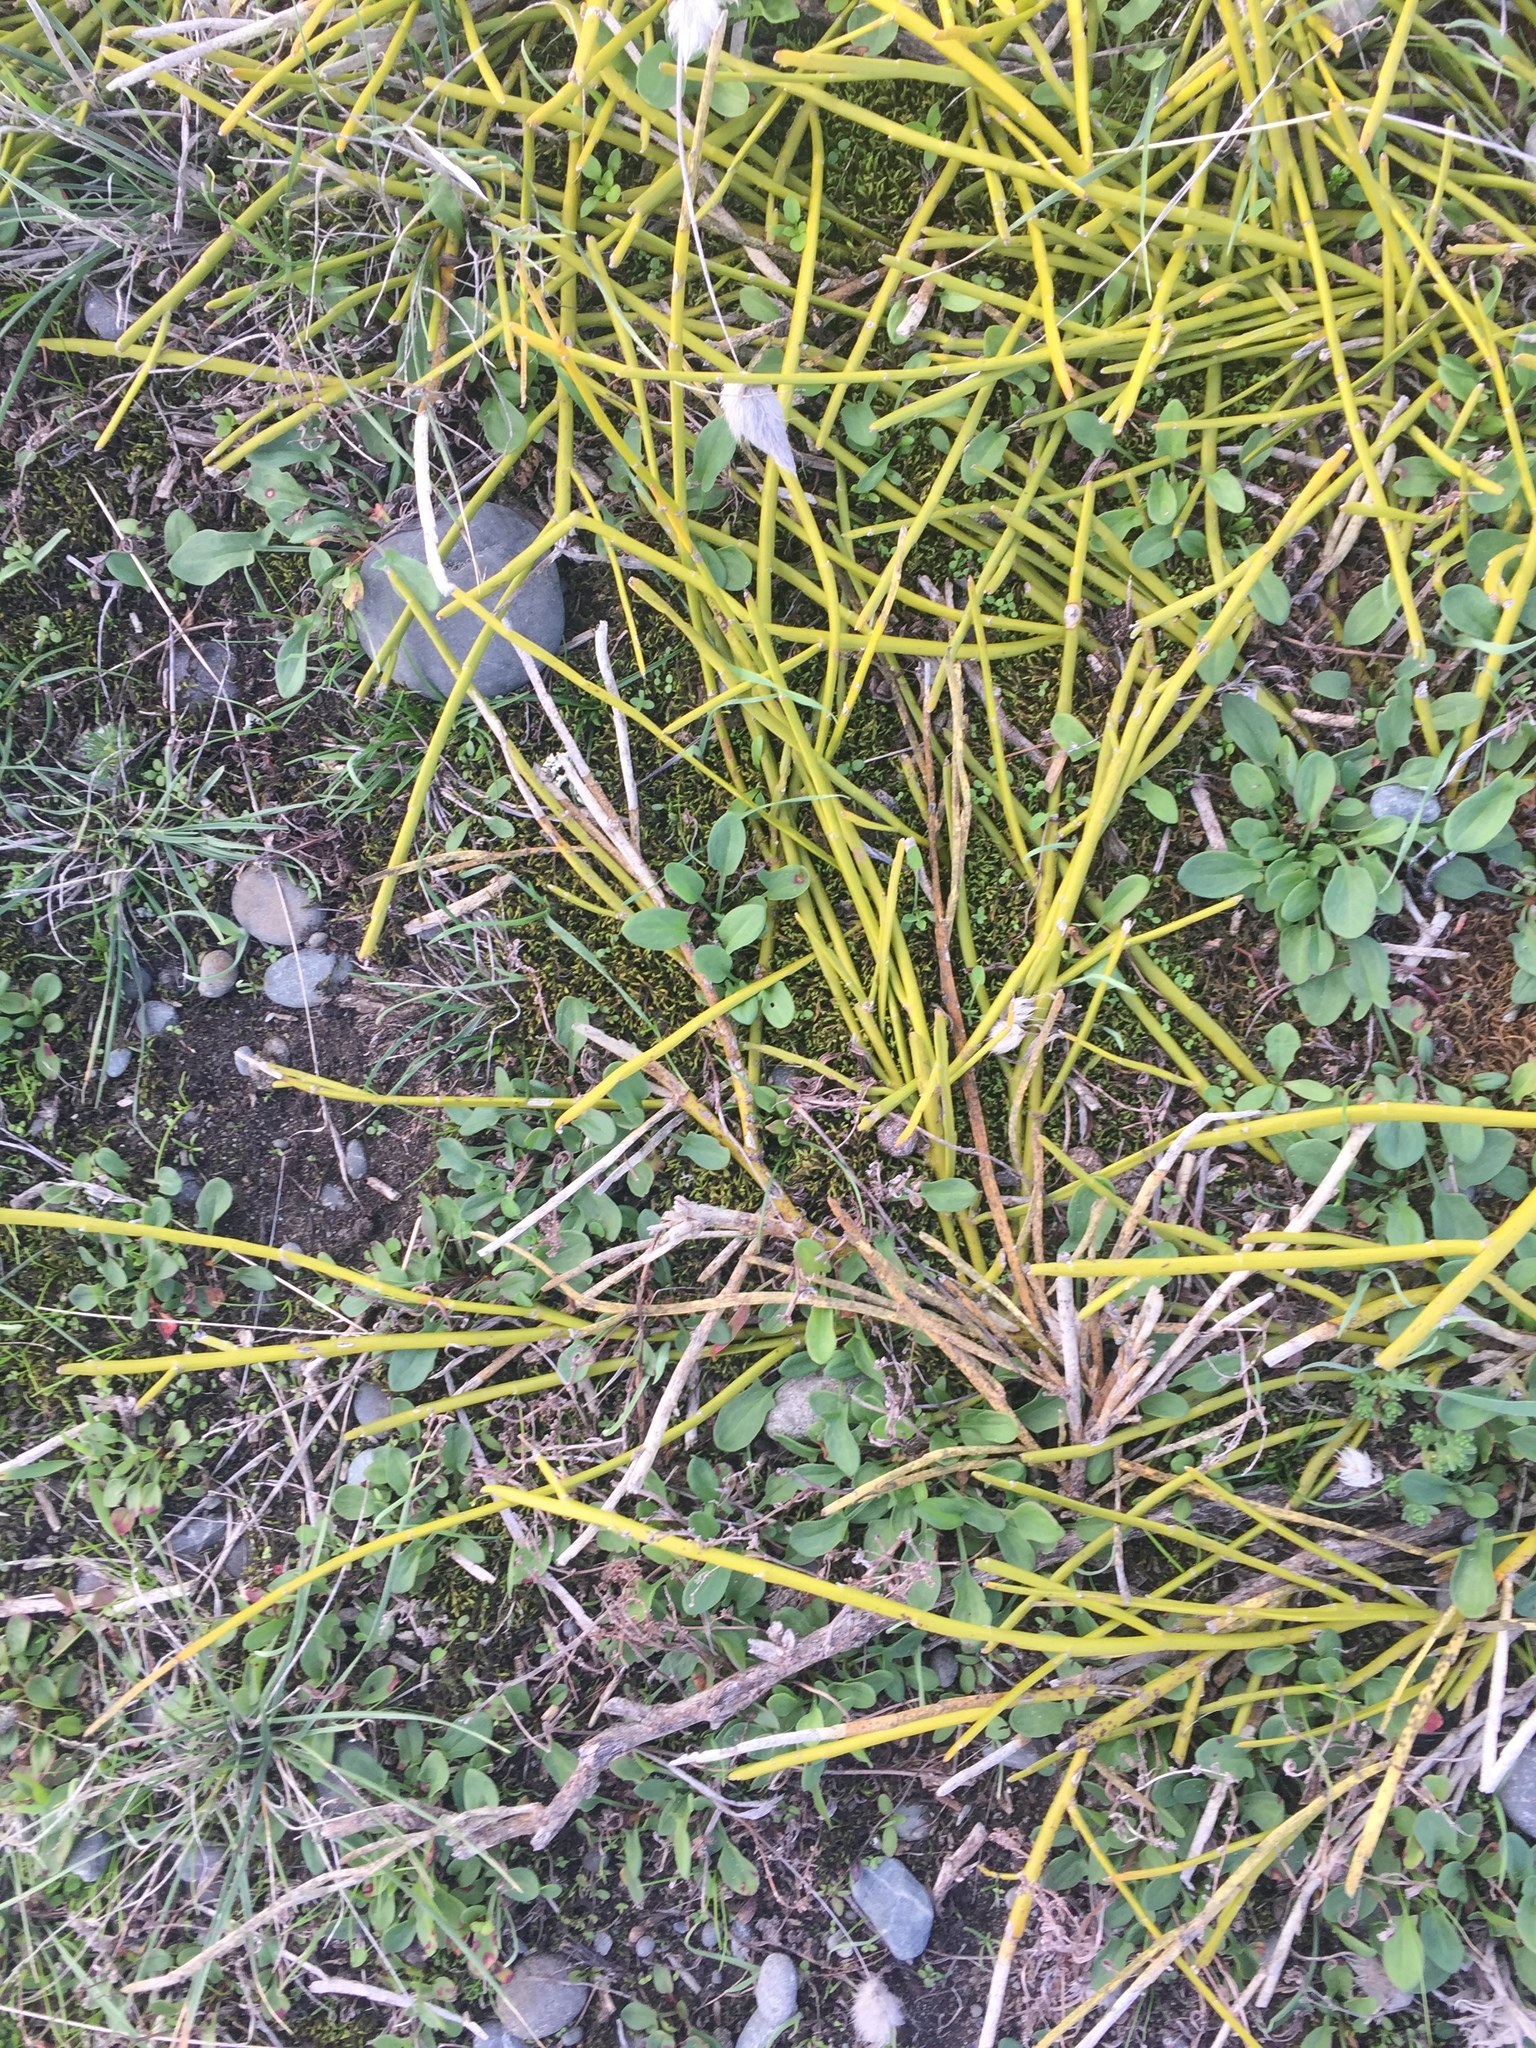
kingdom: Plantae
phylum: Tracheophyta
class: Magnoliopsida
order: Fabales
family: Fabaceae
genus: Carmichaelia
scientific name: Carmichaelia appressa
